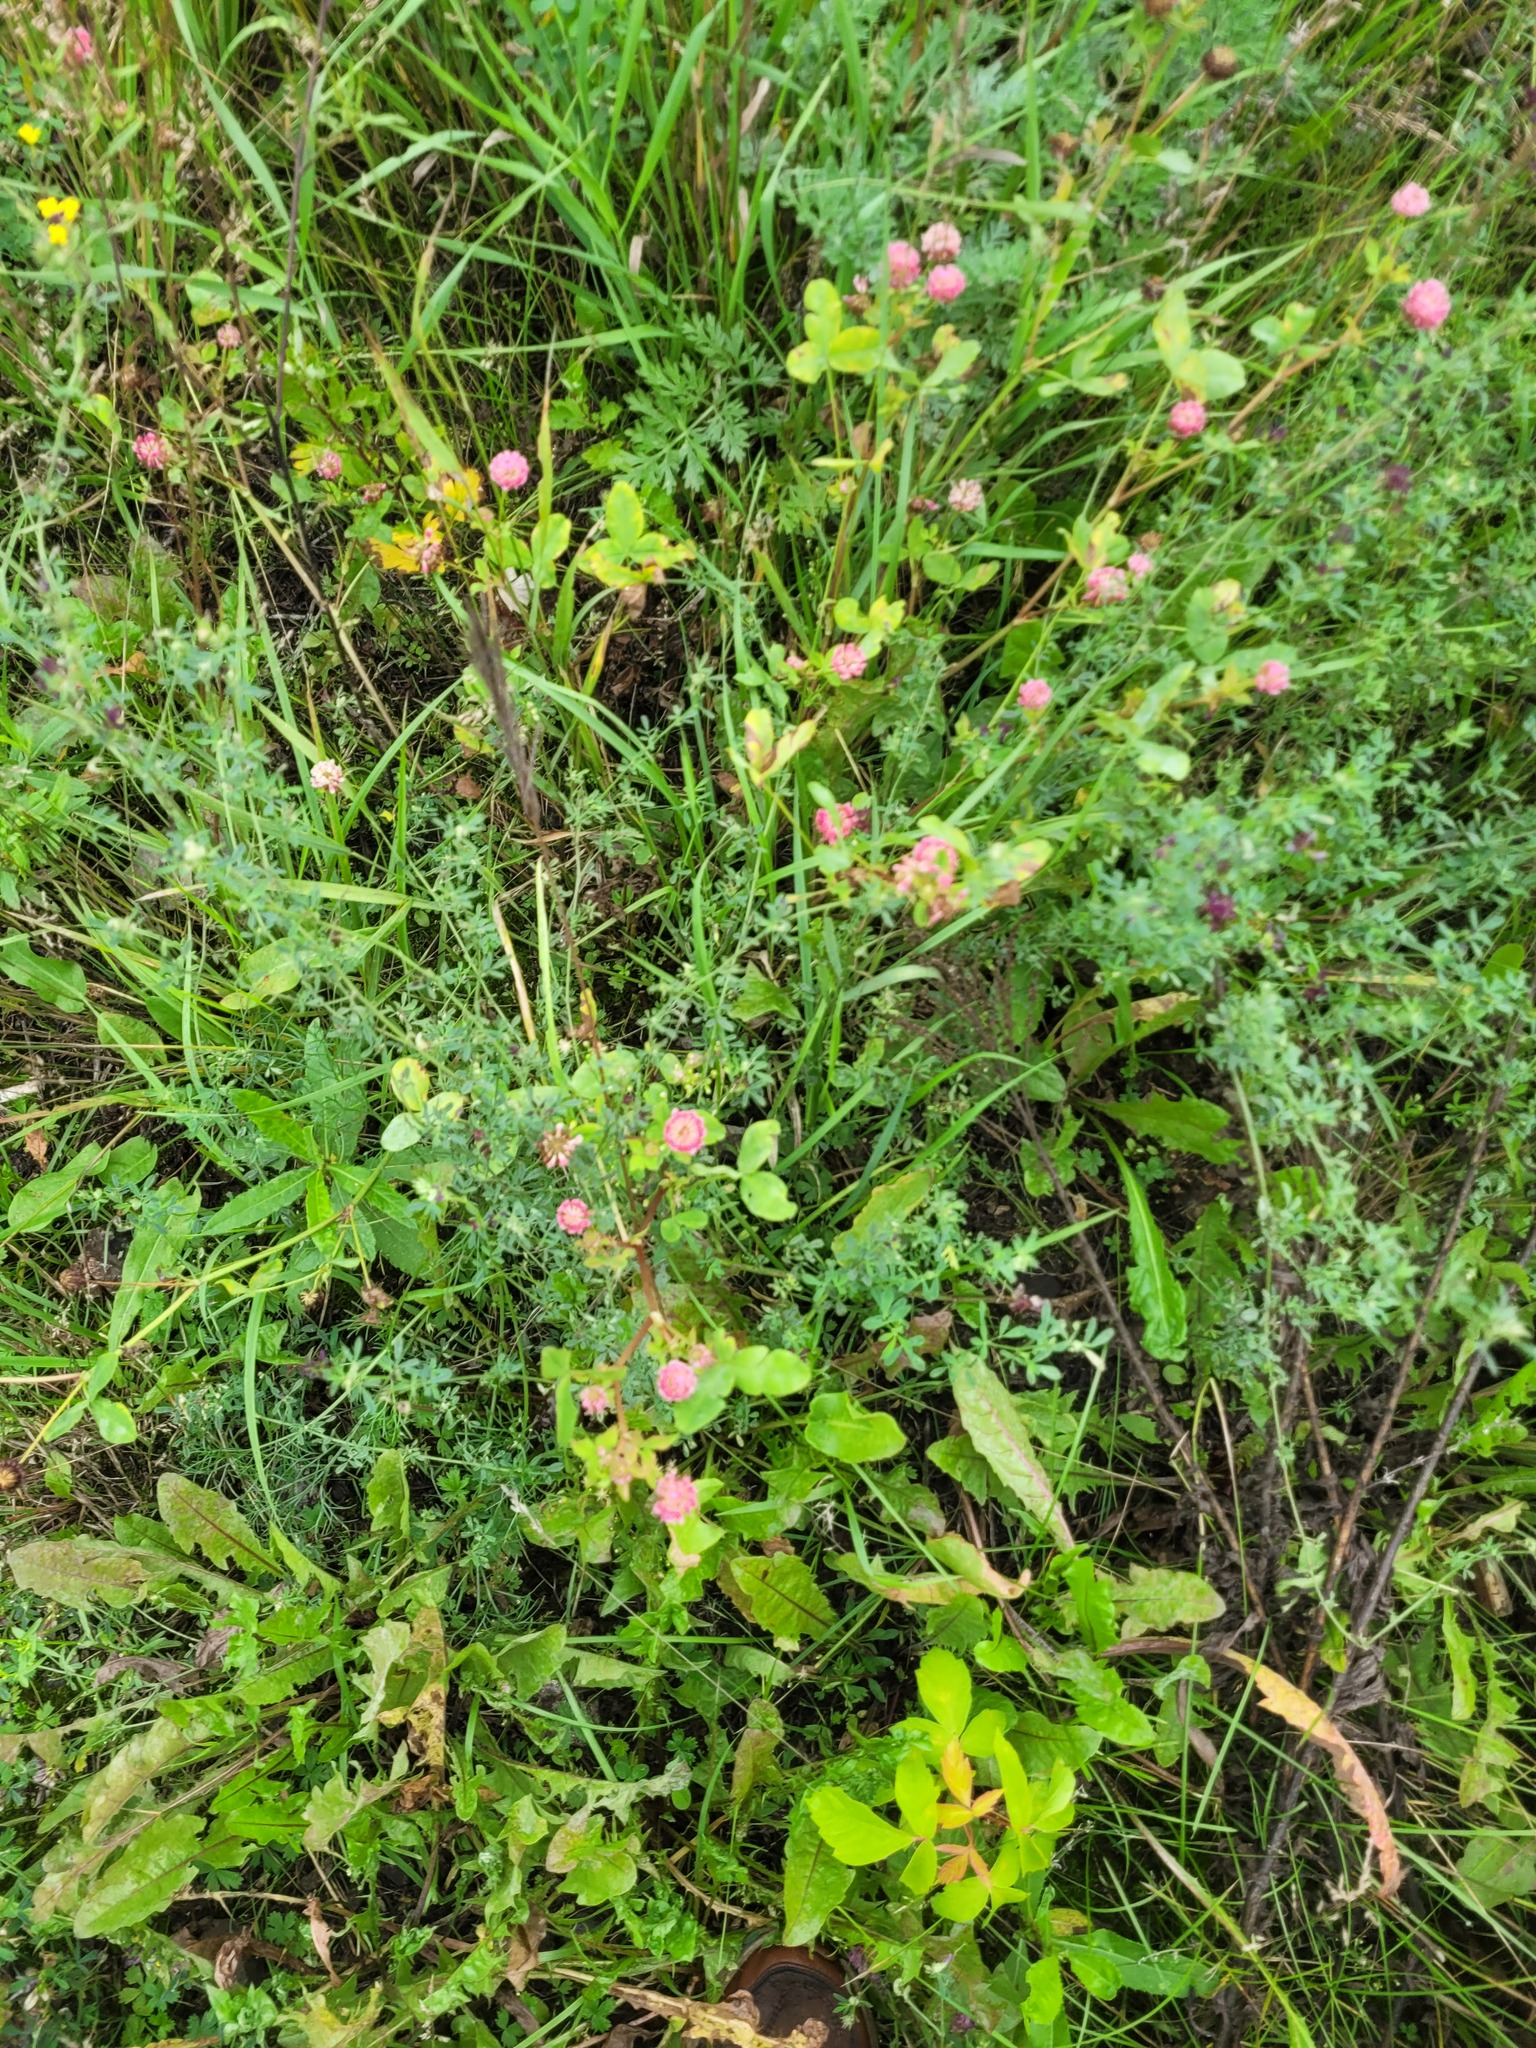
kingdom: Plantae
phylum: Tracheophyta
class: Magnoliopsida
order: Fabales
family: Fabaceae
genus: Trifolium
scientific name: Trifolium hybridum
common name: Alsike clover
